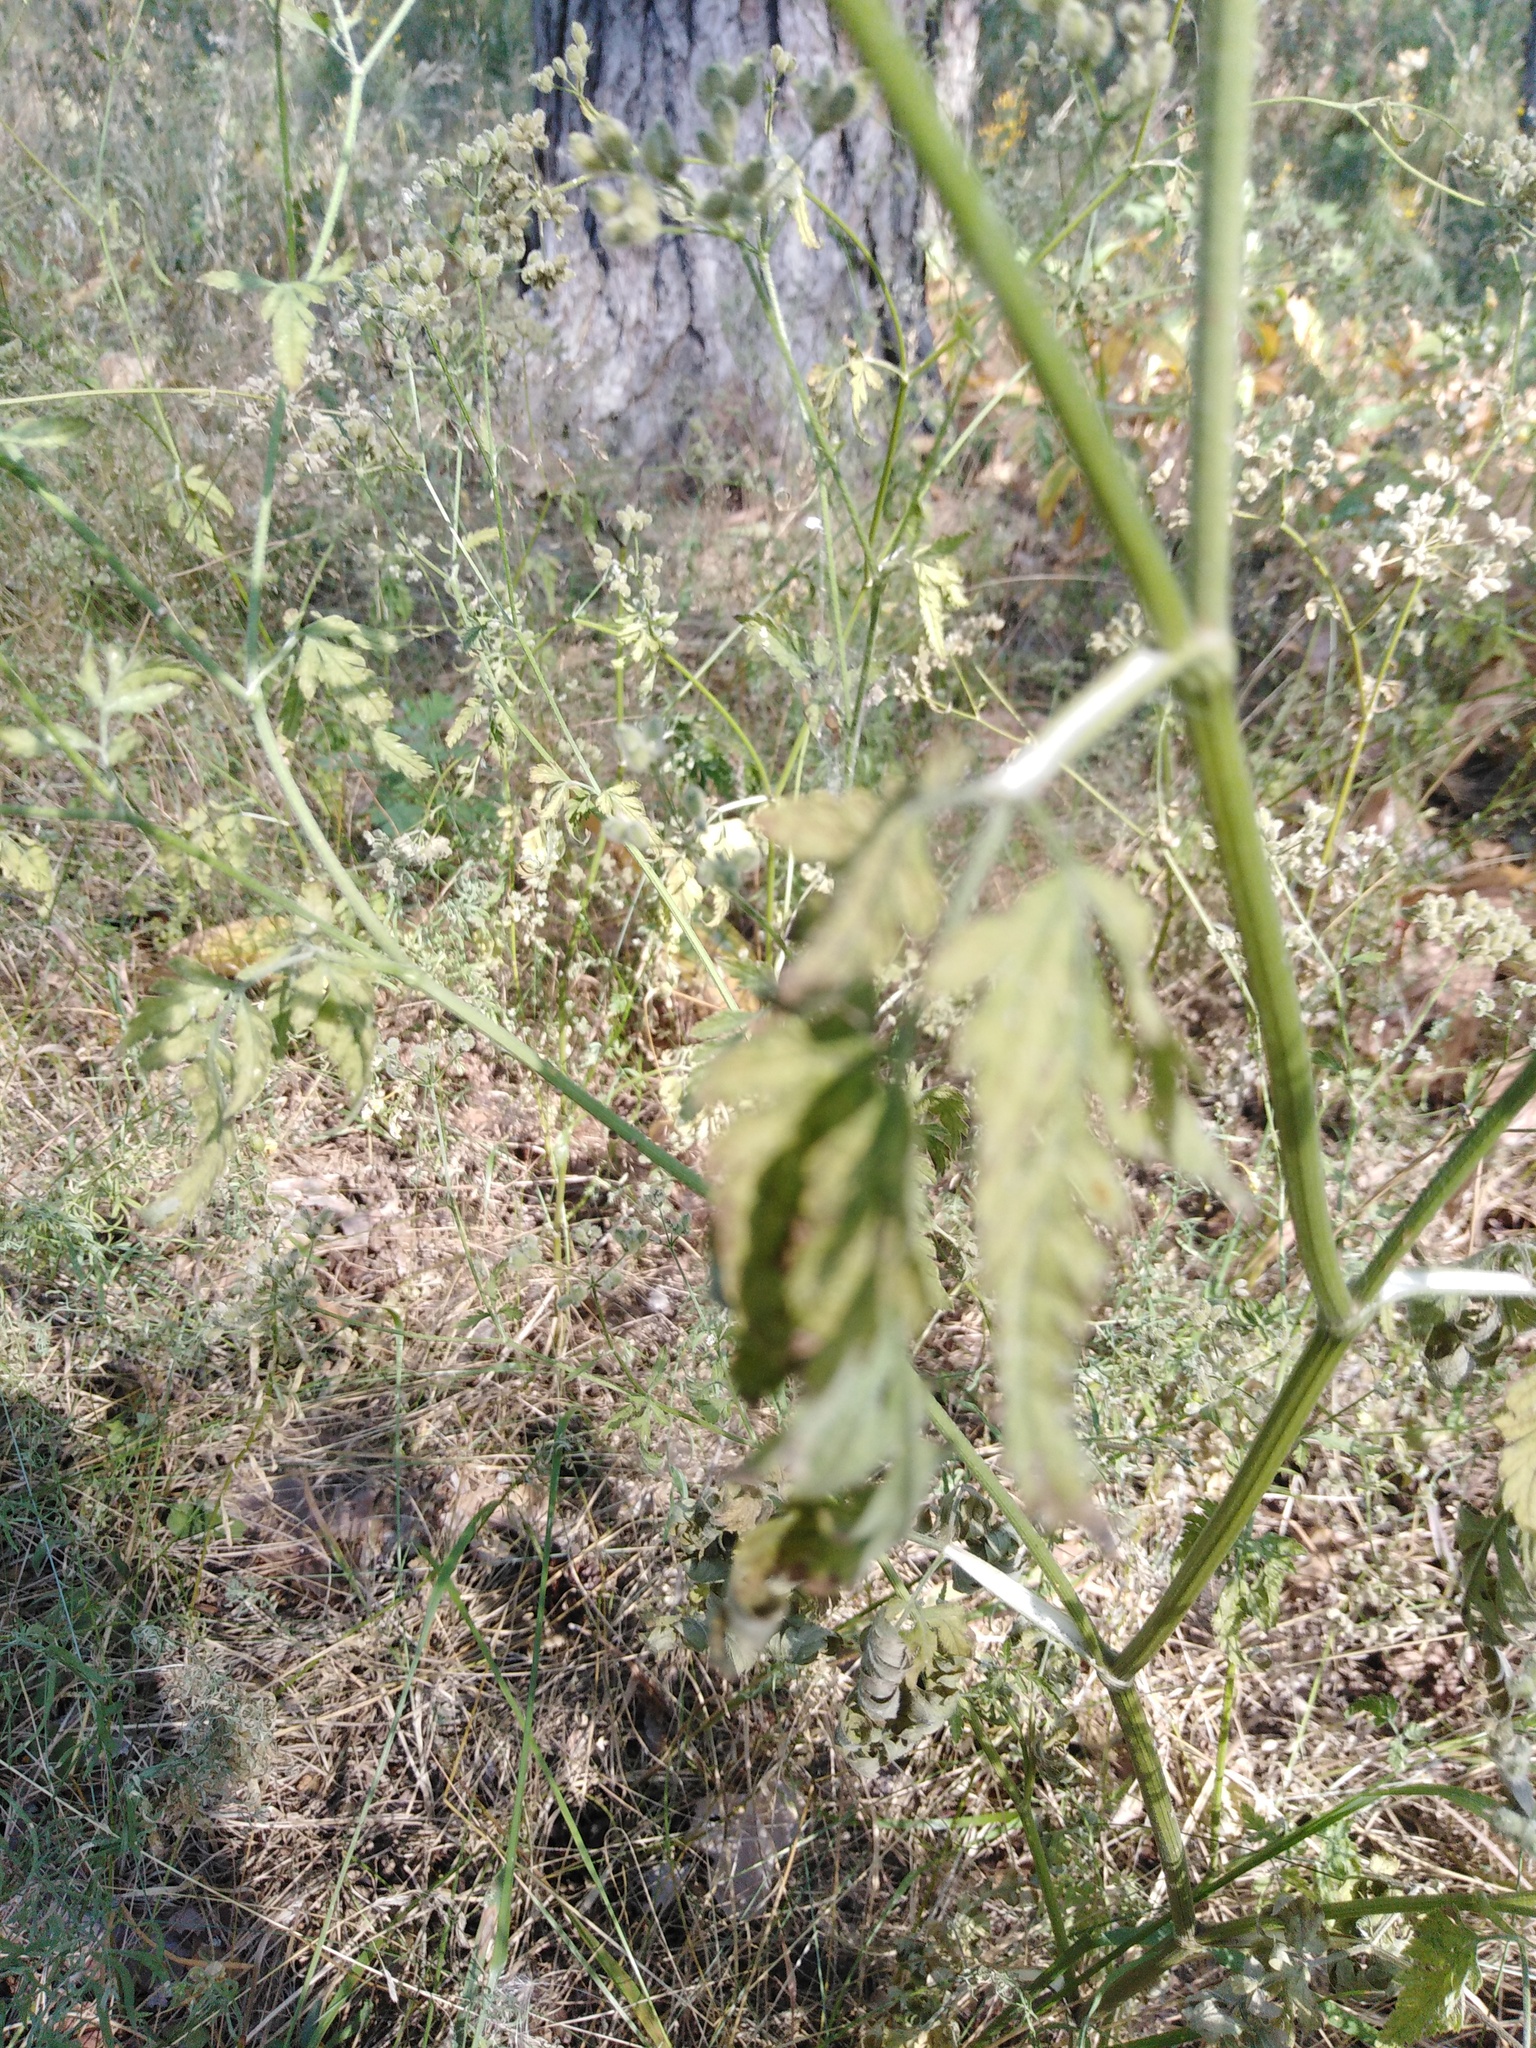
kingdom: Plantae
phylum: Tracheophyta
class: Magnoliopsida
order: Apiales
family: Apiaceae
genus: Torilis
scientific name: Torilis japonica
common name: Upright hedge-parsley
